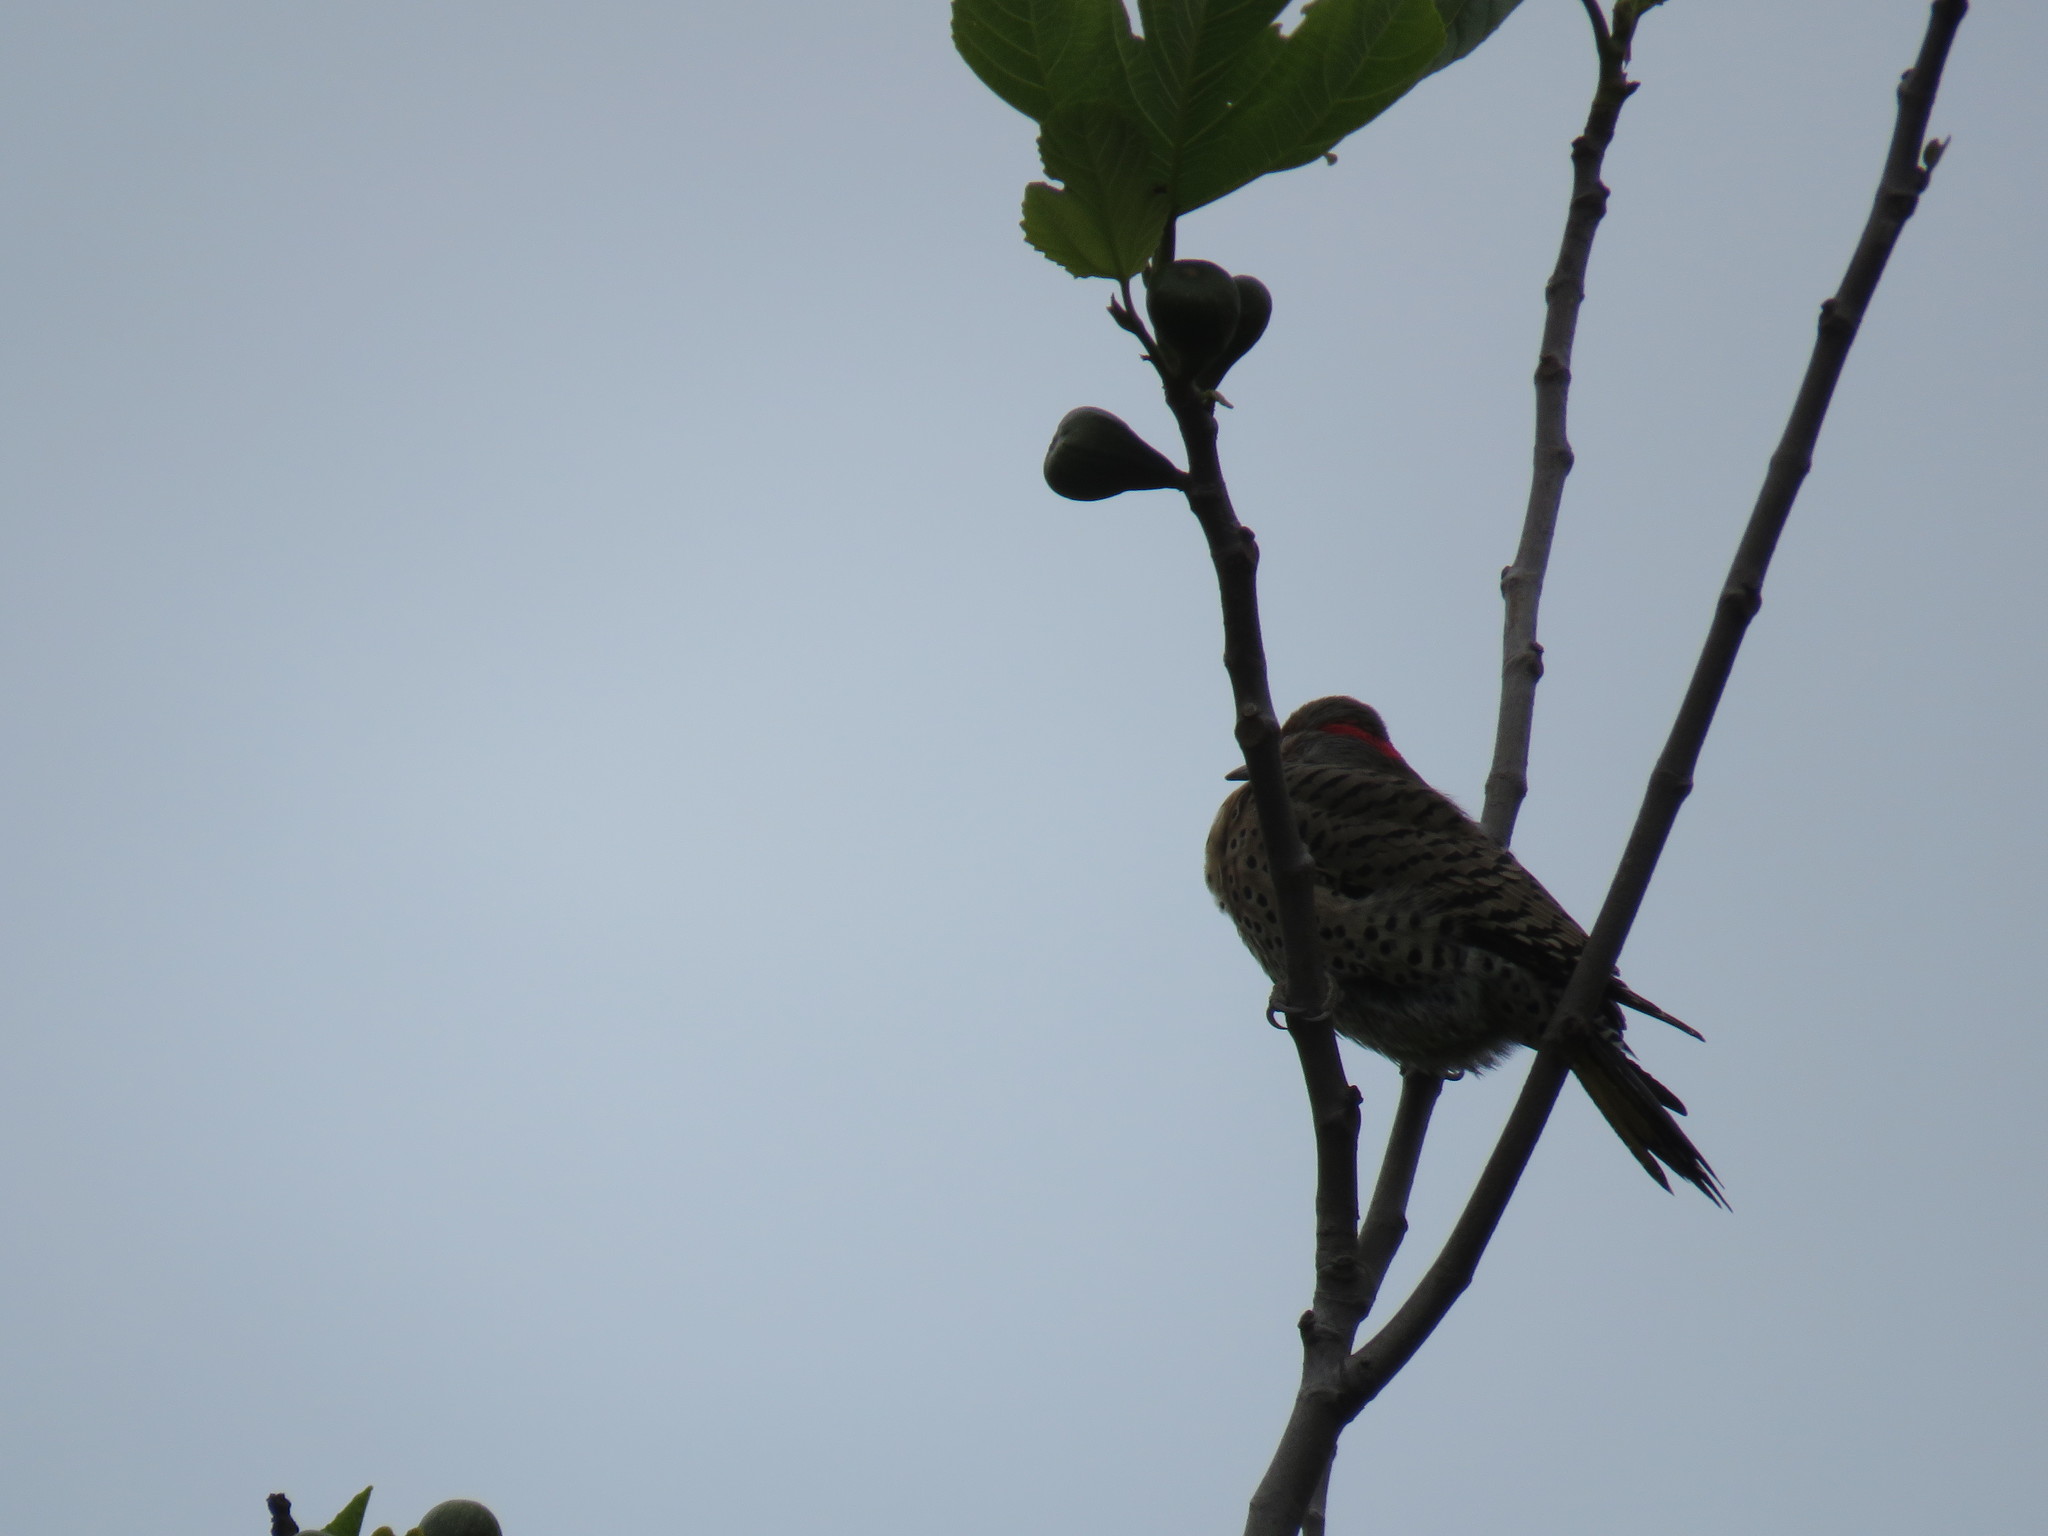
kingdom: Animalia
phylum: Chordata
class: Aves
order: Piciformes
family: Picidae
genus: Colaptes
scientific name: Colaptes auratus
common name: Northern flicker
